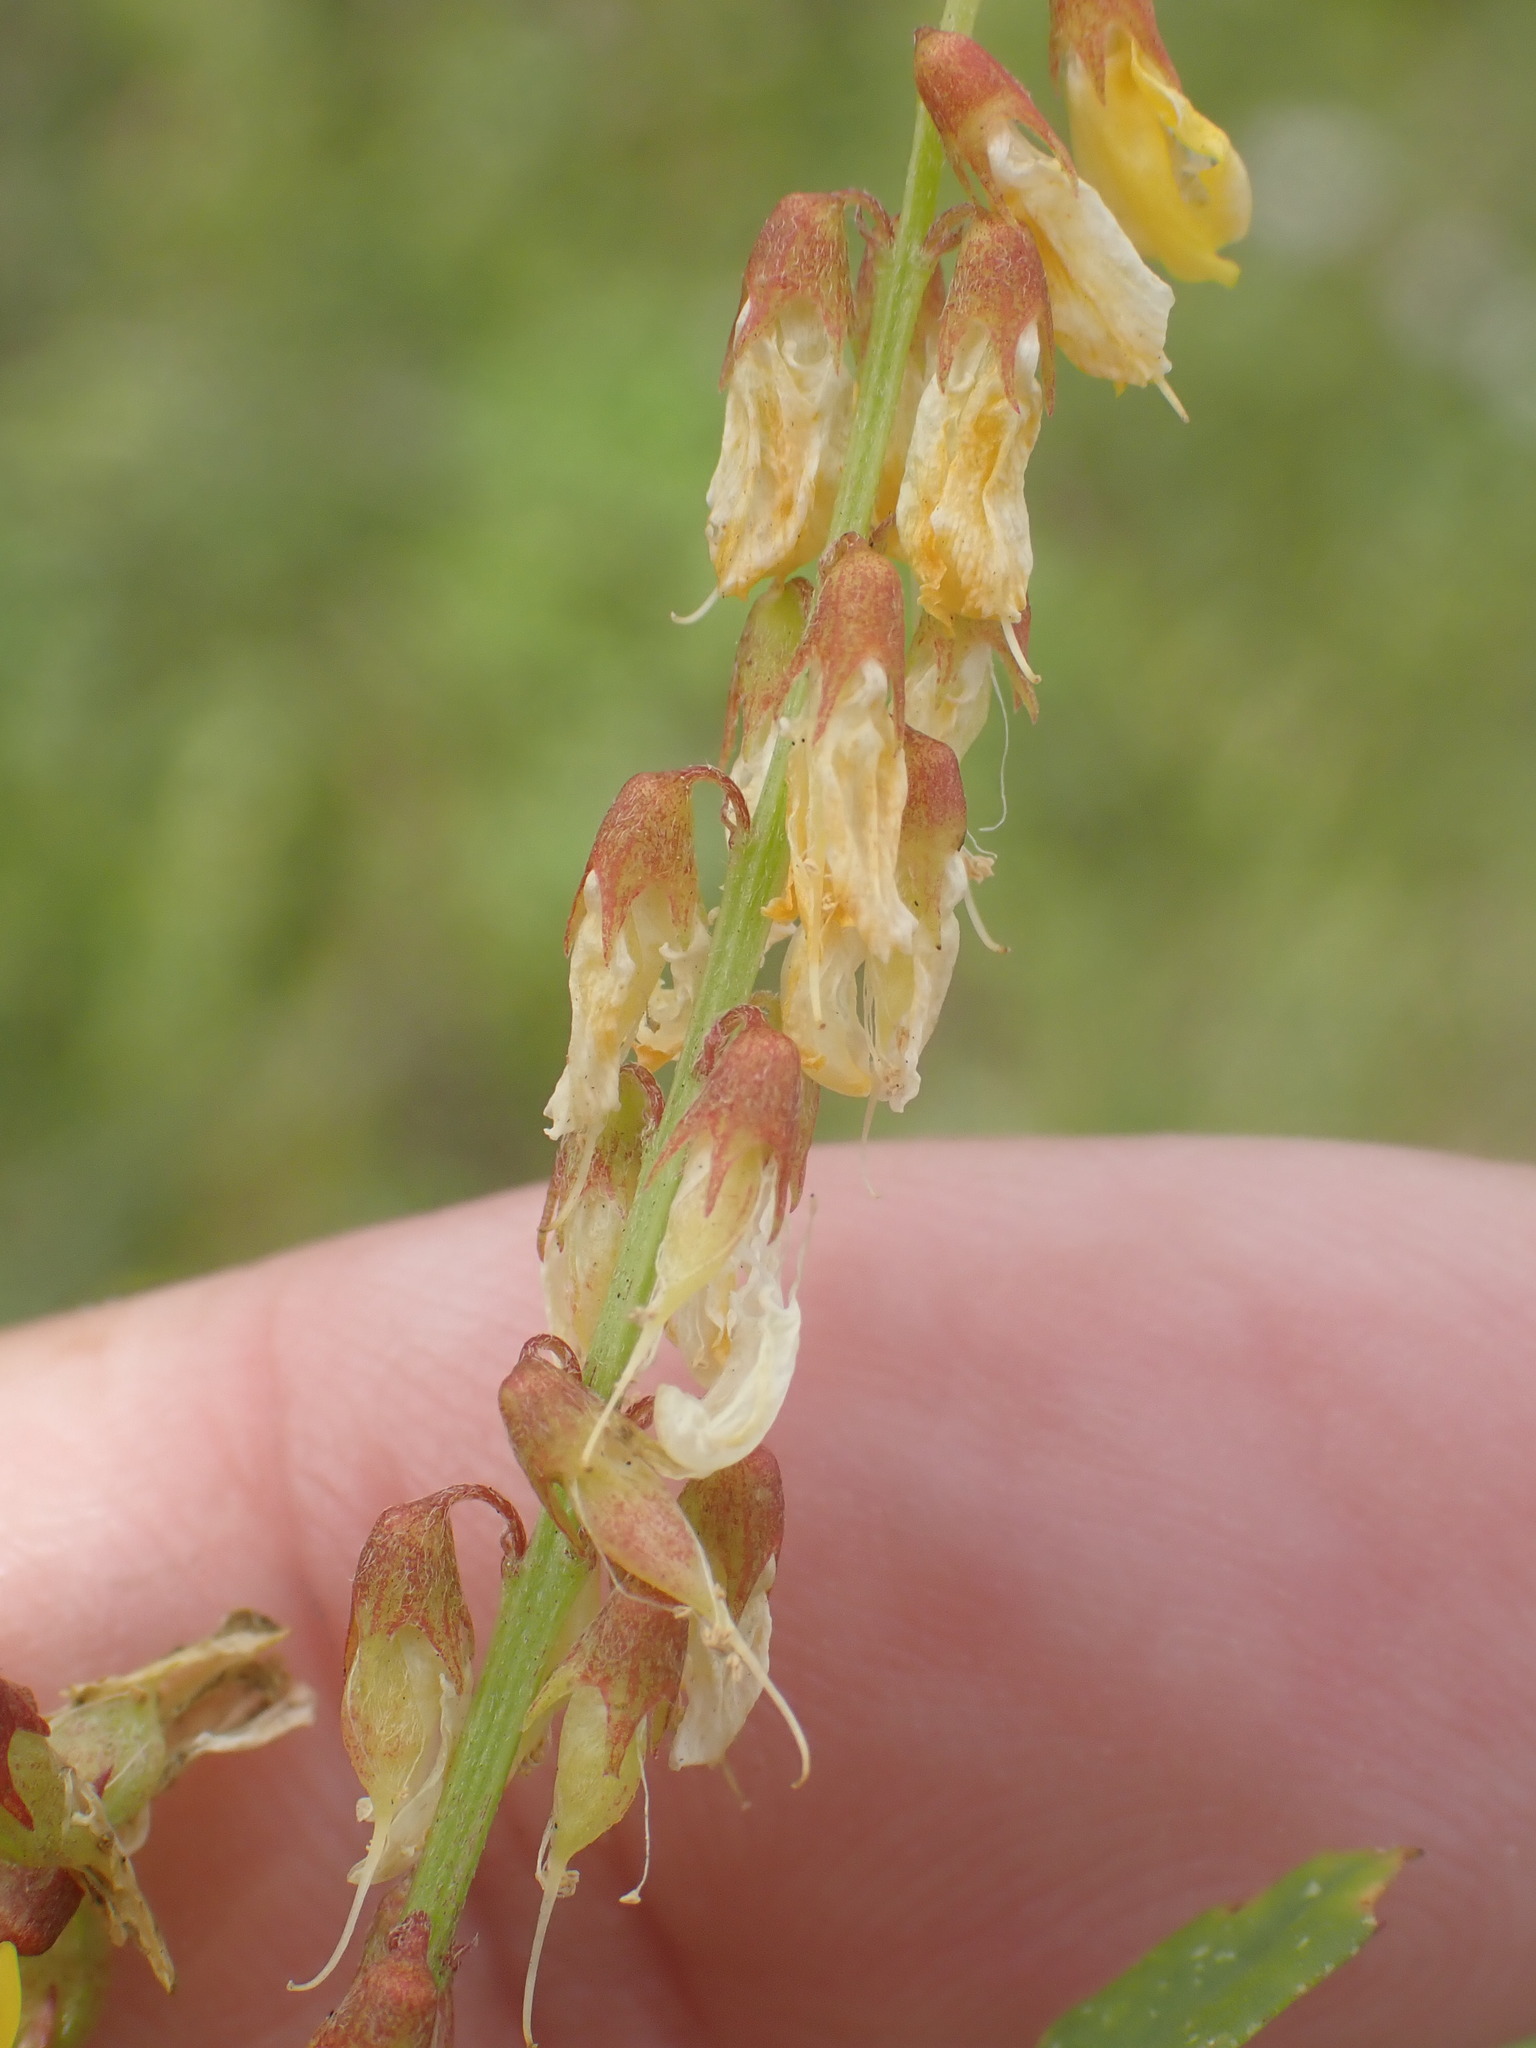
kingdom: Plantae
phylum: Tracheophyta
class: Magnoliopsida
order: Fabales
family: Fabaceae
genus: Melilotus
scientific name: Melilotus officinalis
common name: Sweetclover
